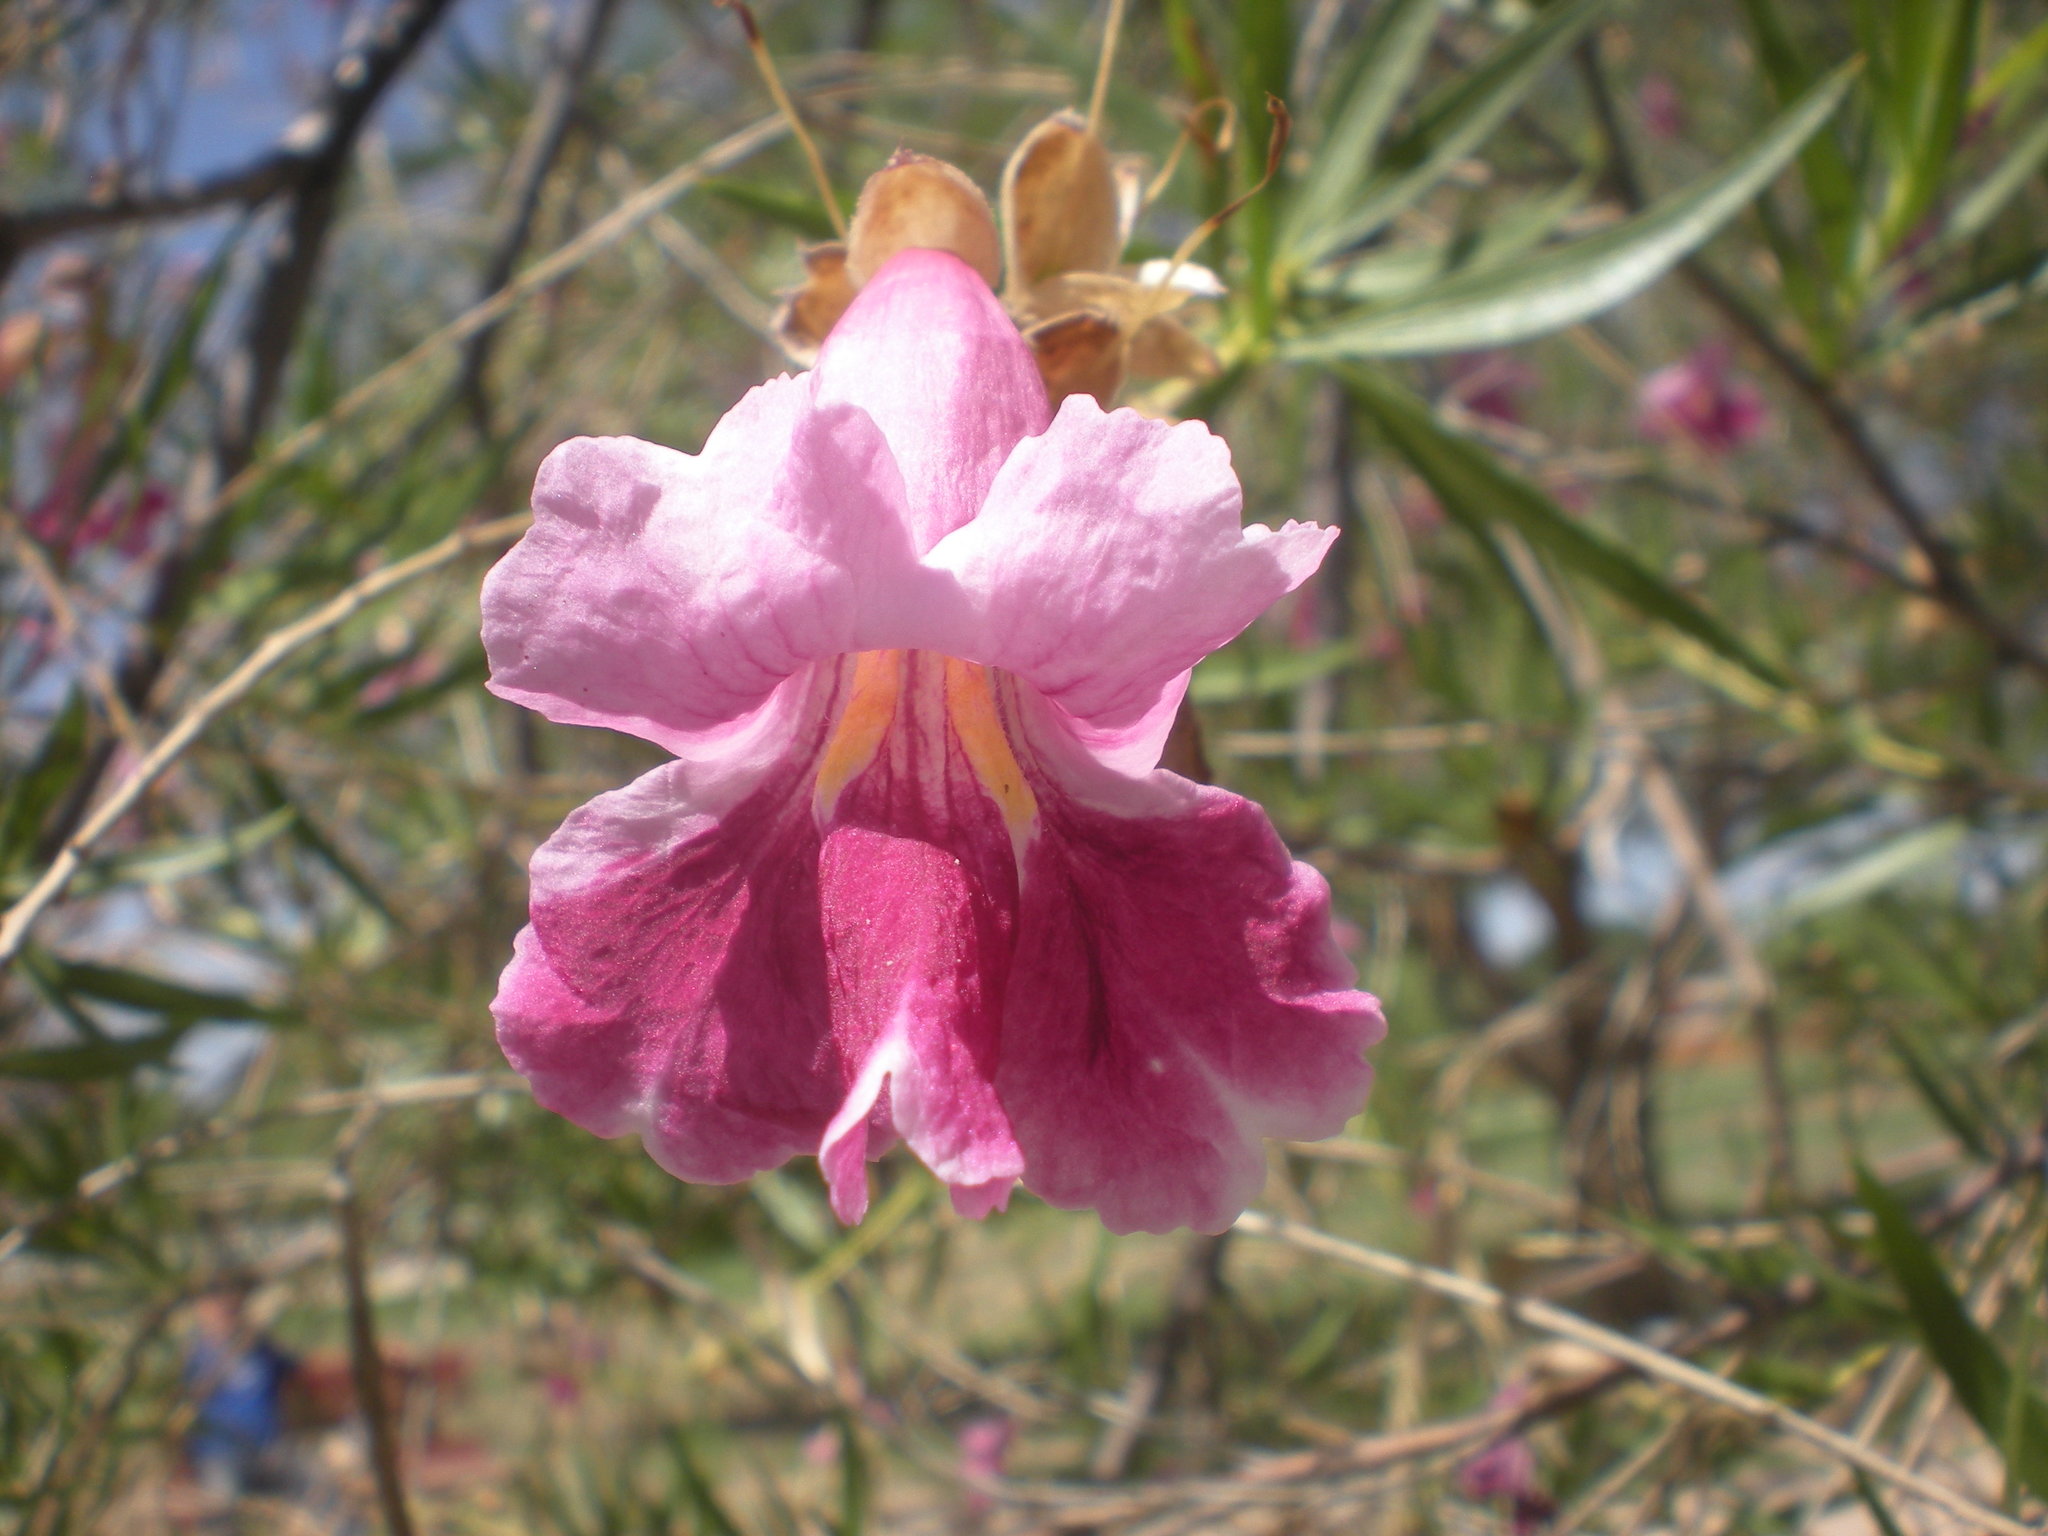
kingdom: Plantae
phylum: Tracheophyta
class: Magnoliopsida
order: Lamiales
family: Bignoniaceae
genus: Chilopsis
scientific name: Chilopsis linearis
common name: Desert-willow
